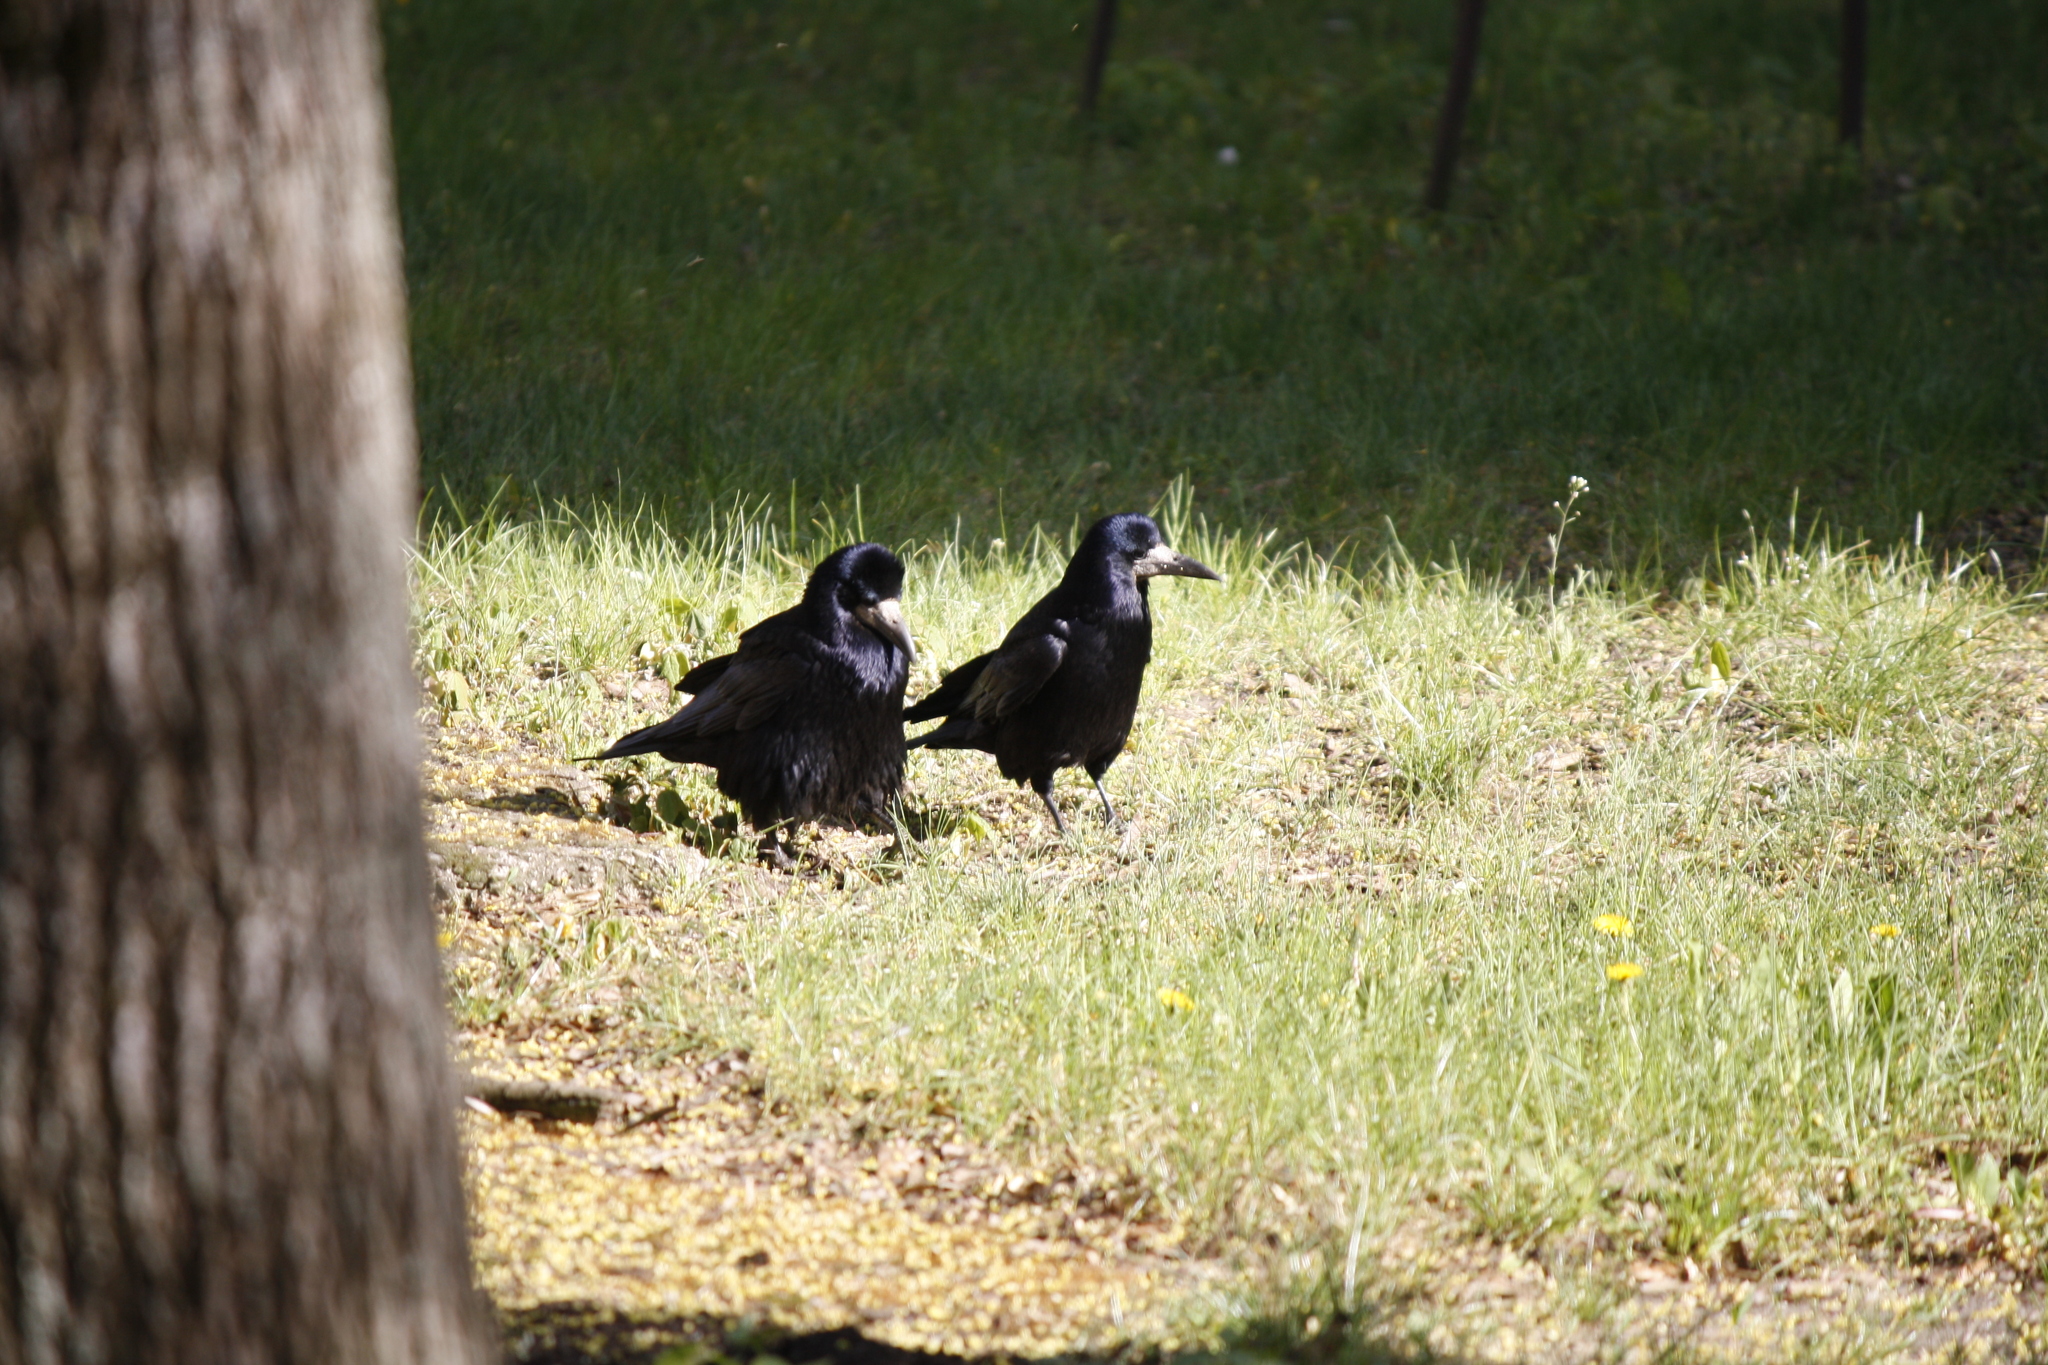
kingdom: Animalia
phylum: Chordata
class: Aves
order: Passeriformes
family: Corvidae
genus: Corvus
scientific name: Corvus frugilegus
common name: Rook
